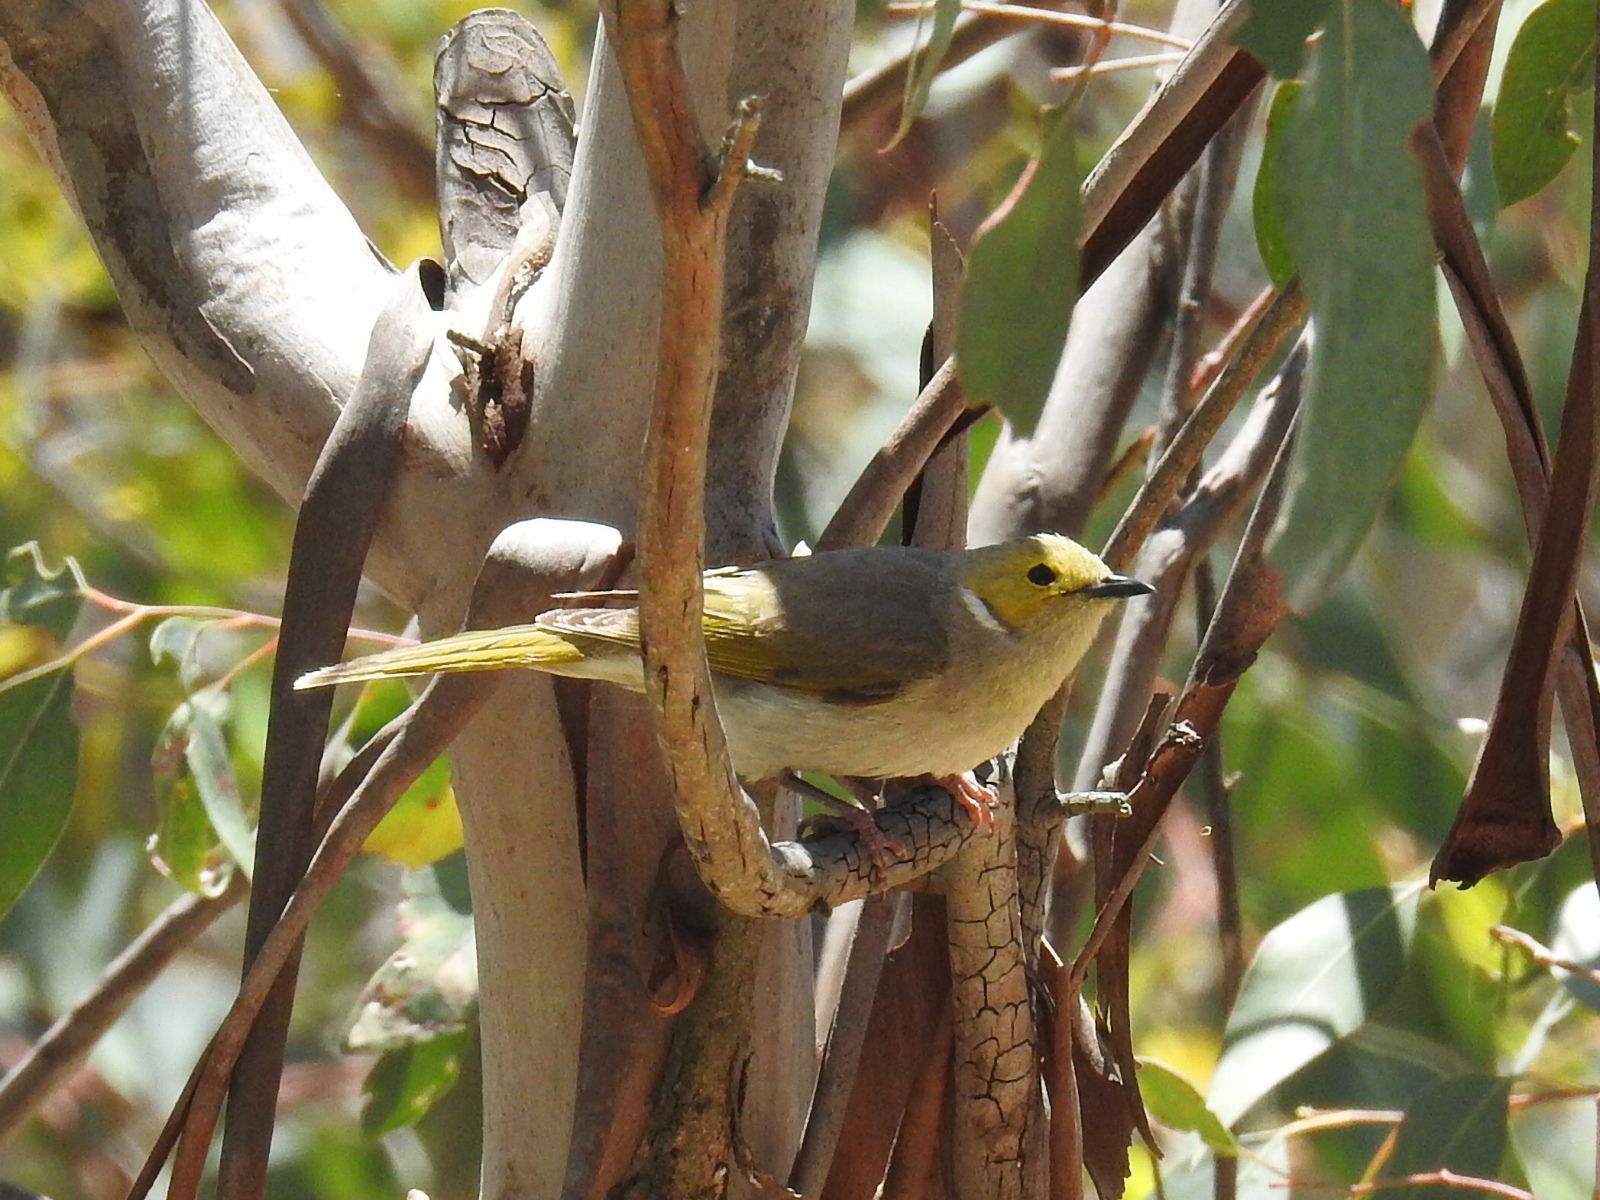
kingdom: Animalia
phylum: Chordata
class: Aves
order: Passeriformes
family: Meliphagidae
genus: Ptilotula
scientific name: Ptilotula penicillata
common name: White-plumed honeyeater
